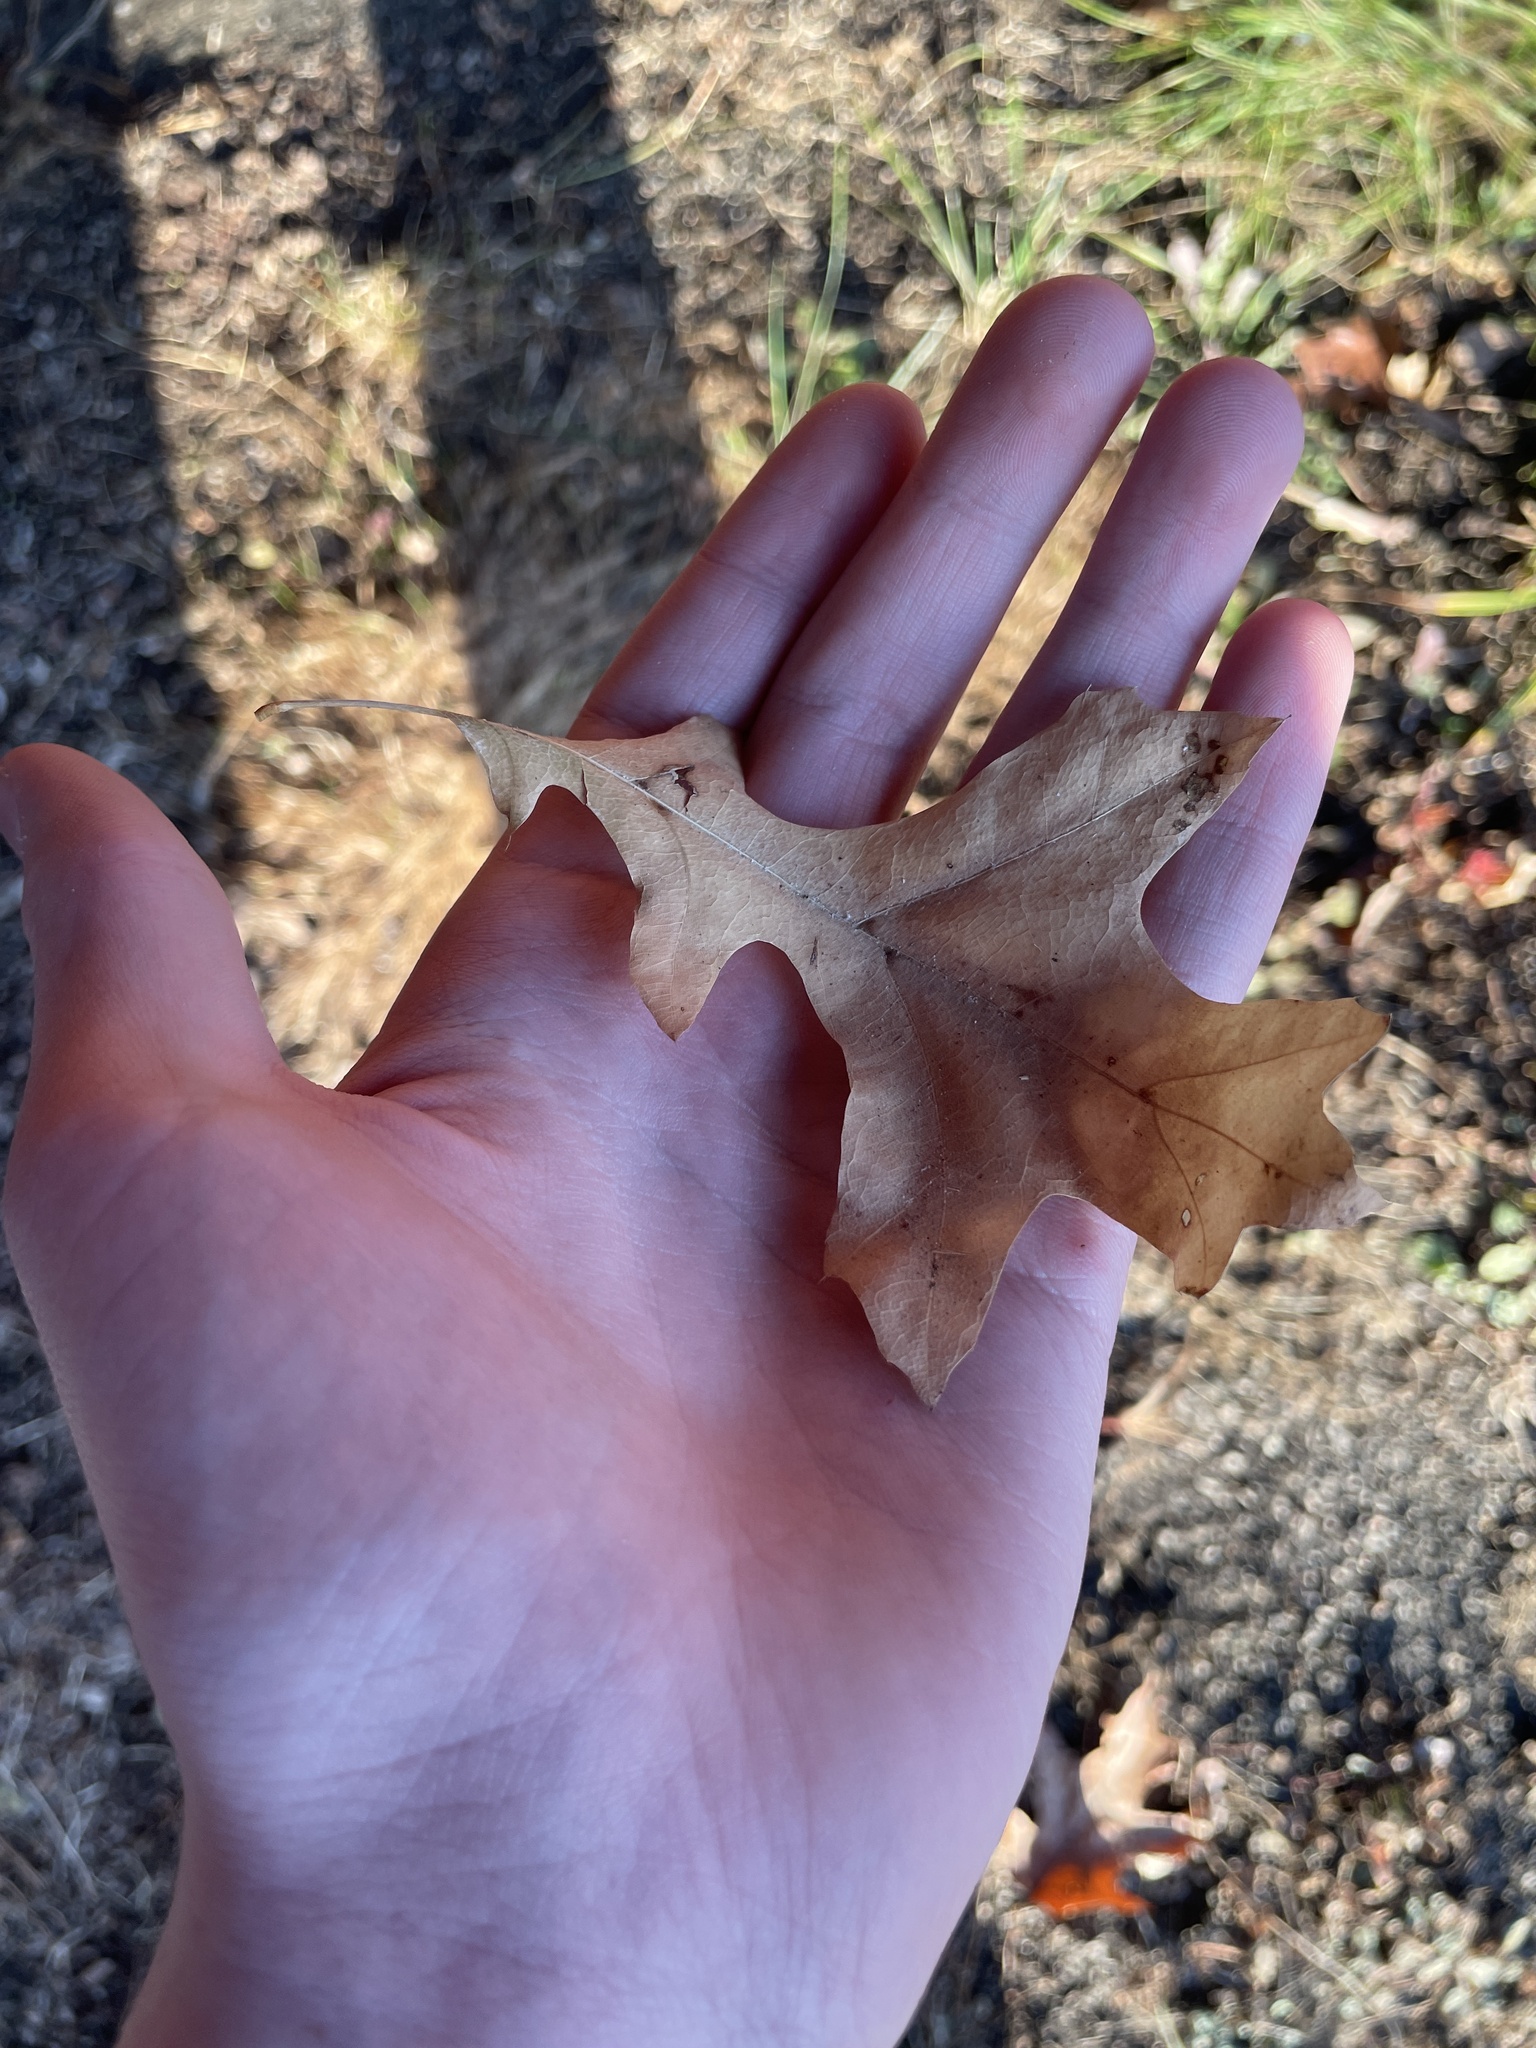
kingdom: Plantae
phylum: Tracheophyta
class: Magnoliopsida
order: Fagales
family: Fagaceae
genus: Quercus
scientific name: Quercus palustris
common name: Pin oak
